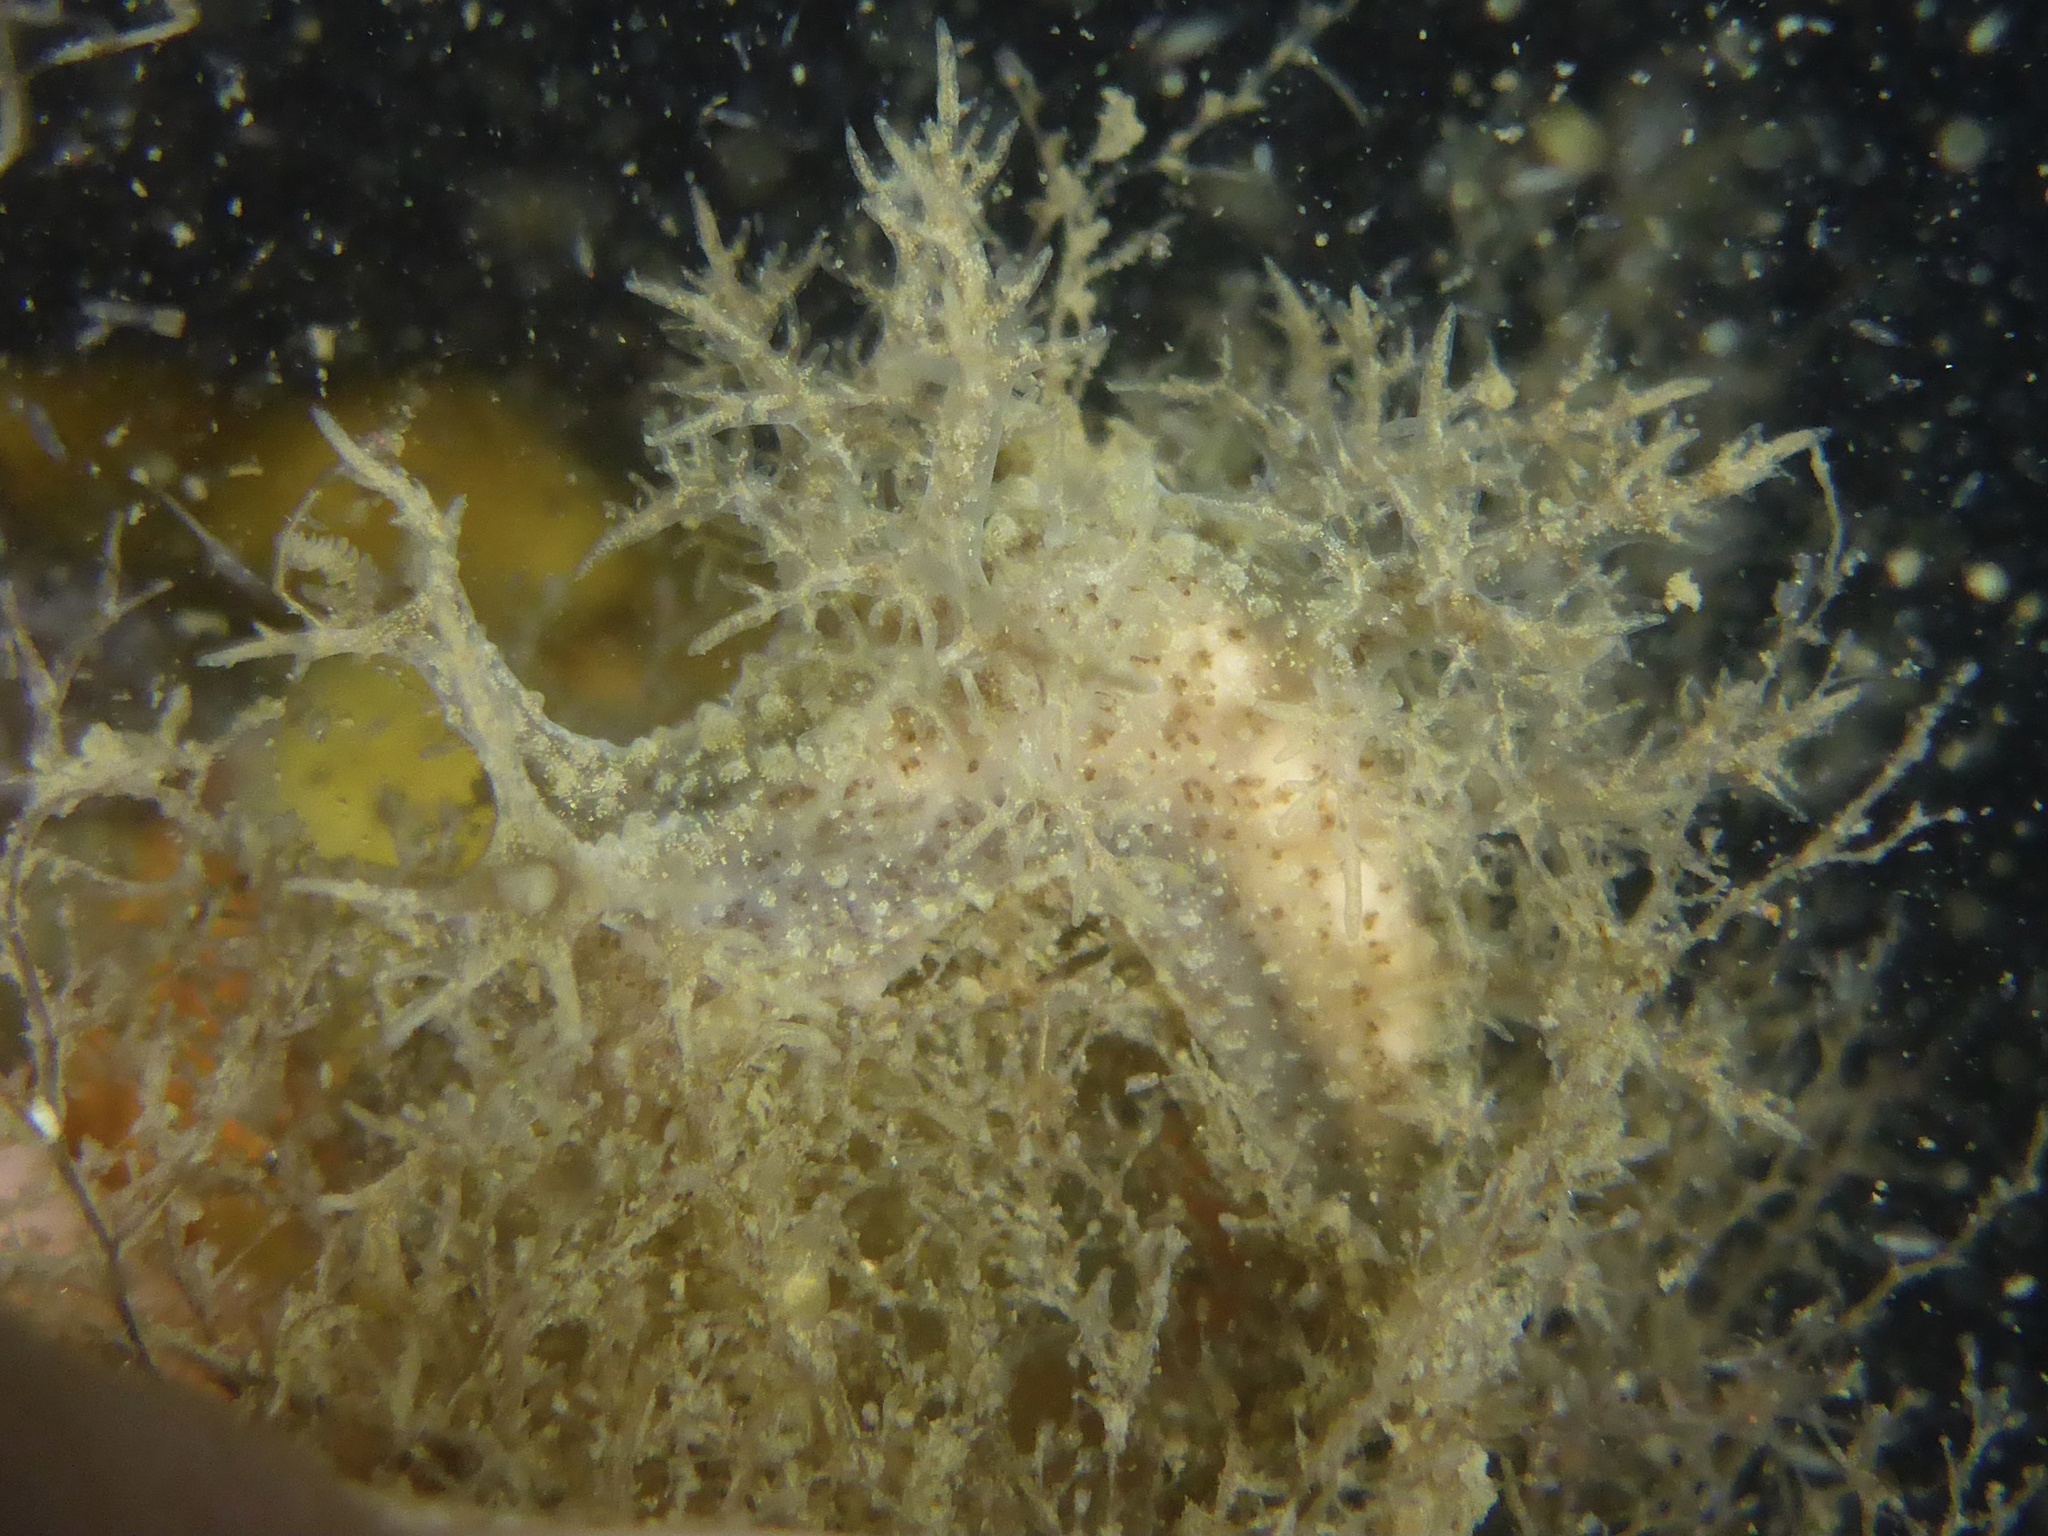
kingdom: Animalia
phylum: Mollusca
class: Gastropoda
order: Nudibranchia
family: Dendronotidae
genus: Dendronotus
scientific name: Dendronotus venustus
